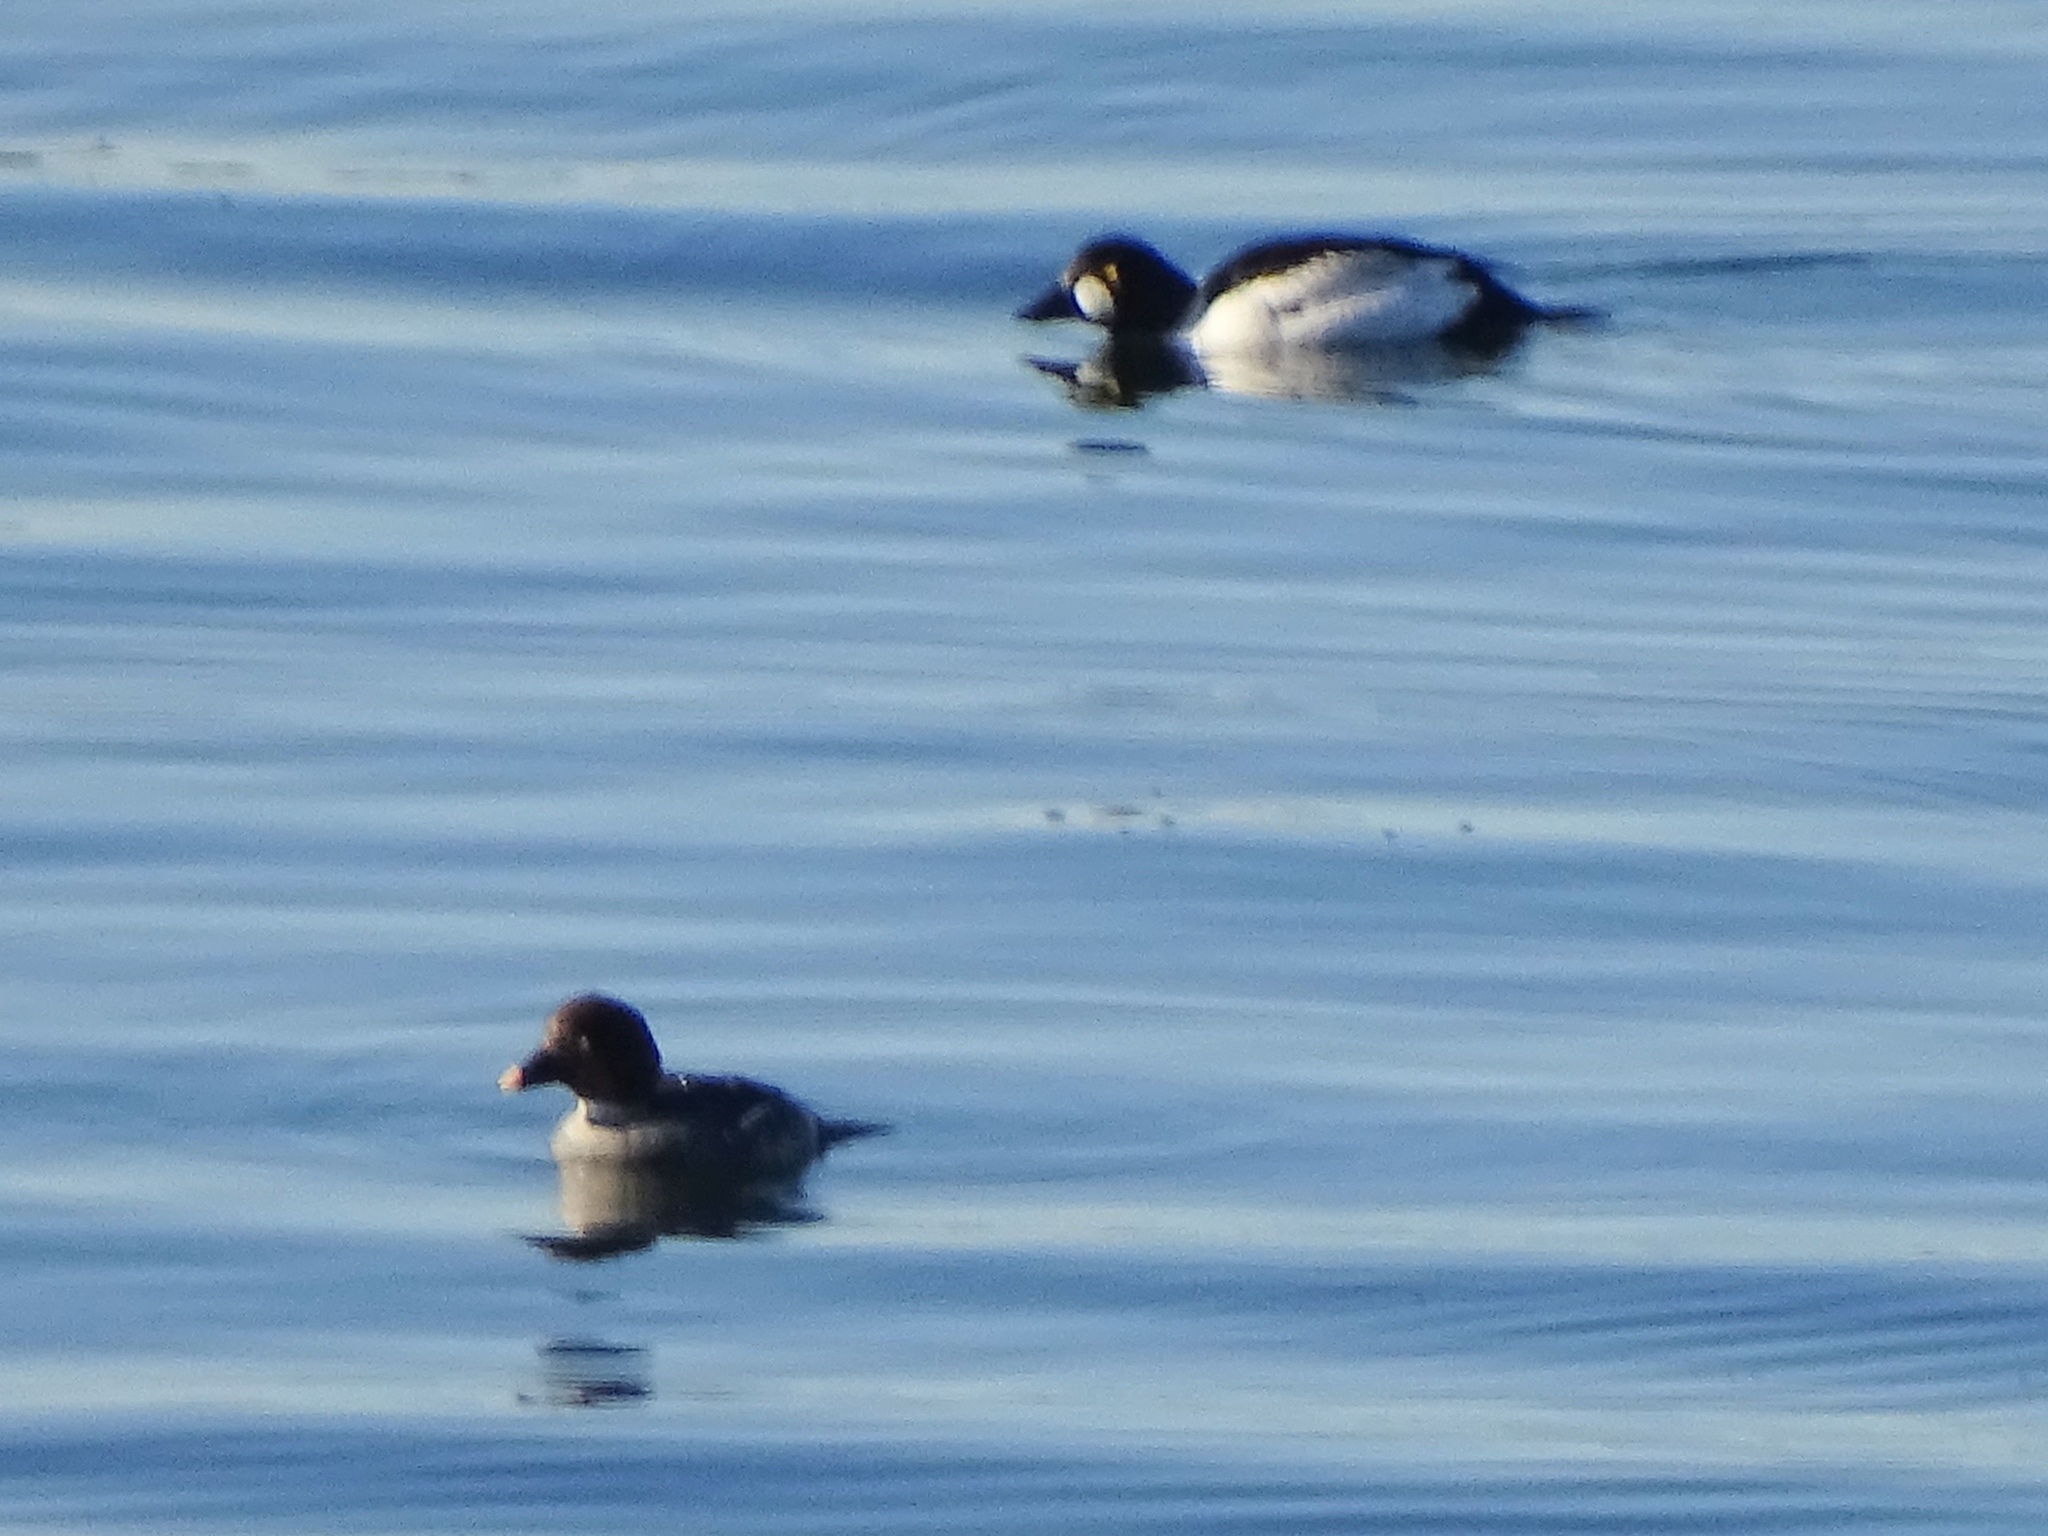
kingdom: Animalia
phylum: Chordata
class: Aves
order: Anseriformes
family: Anatidae
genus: Bucephala
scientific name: Bucephala clangula
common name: Common goldeneye
